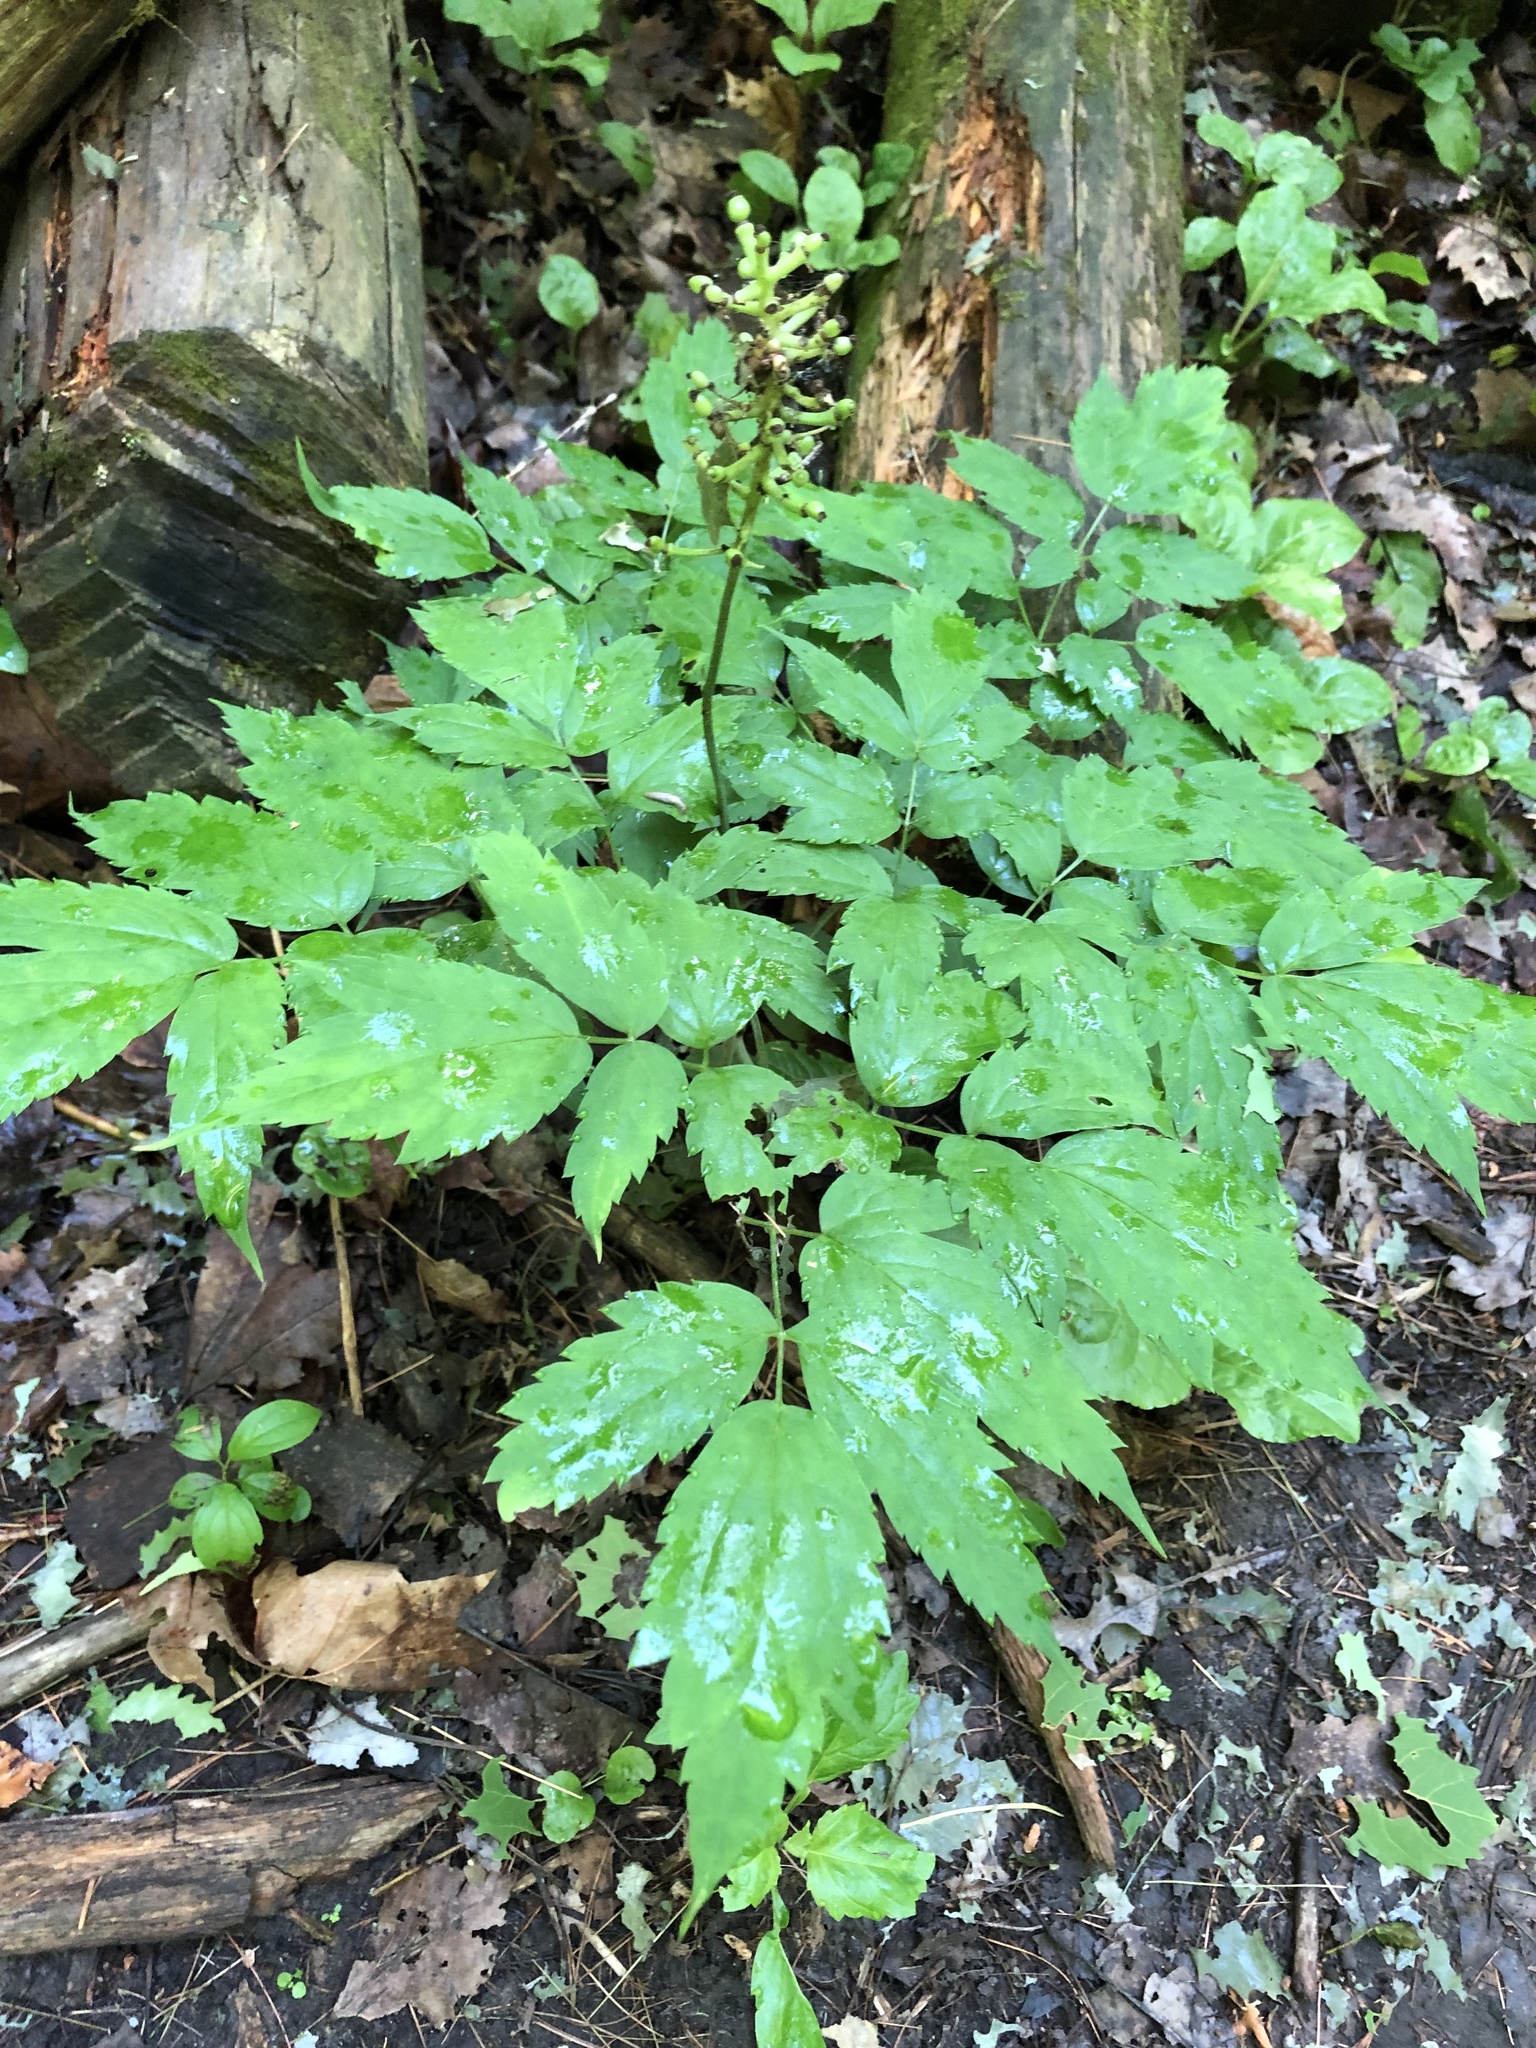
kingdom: Plantae
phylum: Tracheophyta
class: Magnoliopsida
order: Ranunculales
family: Ranunculaceae
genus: Actaea
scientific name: Actaea pachypoda
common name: Doll's-eyes
